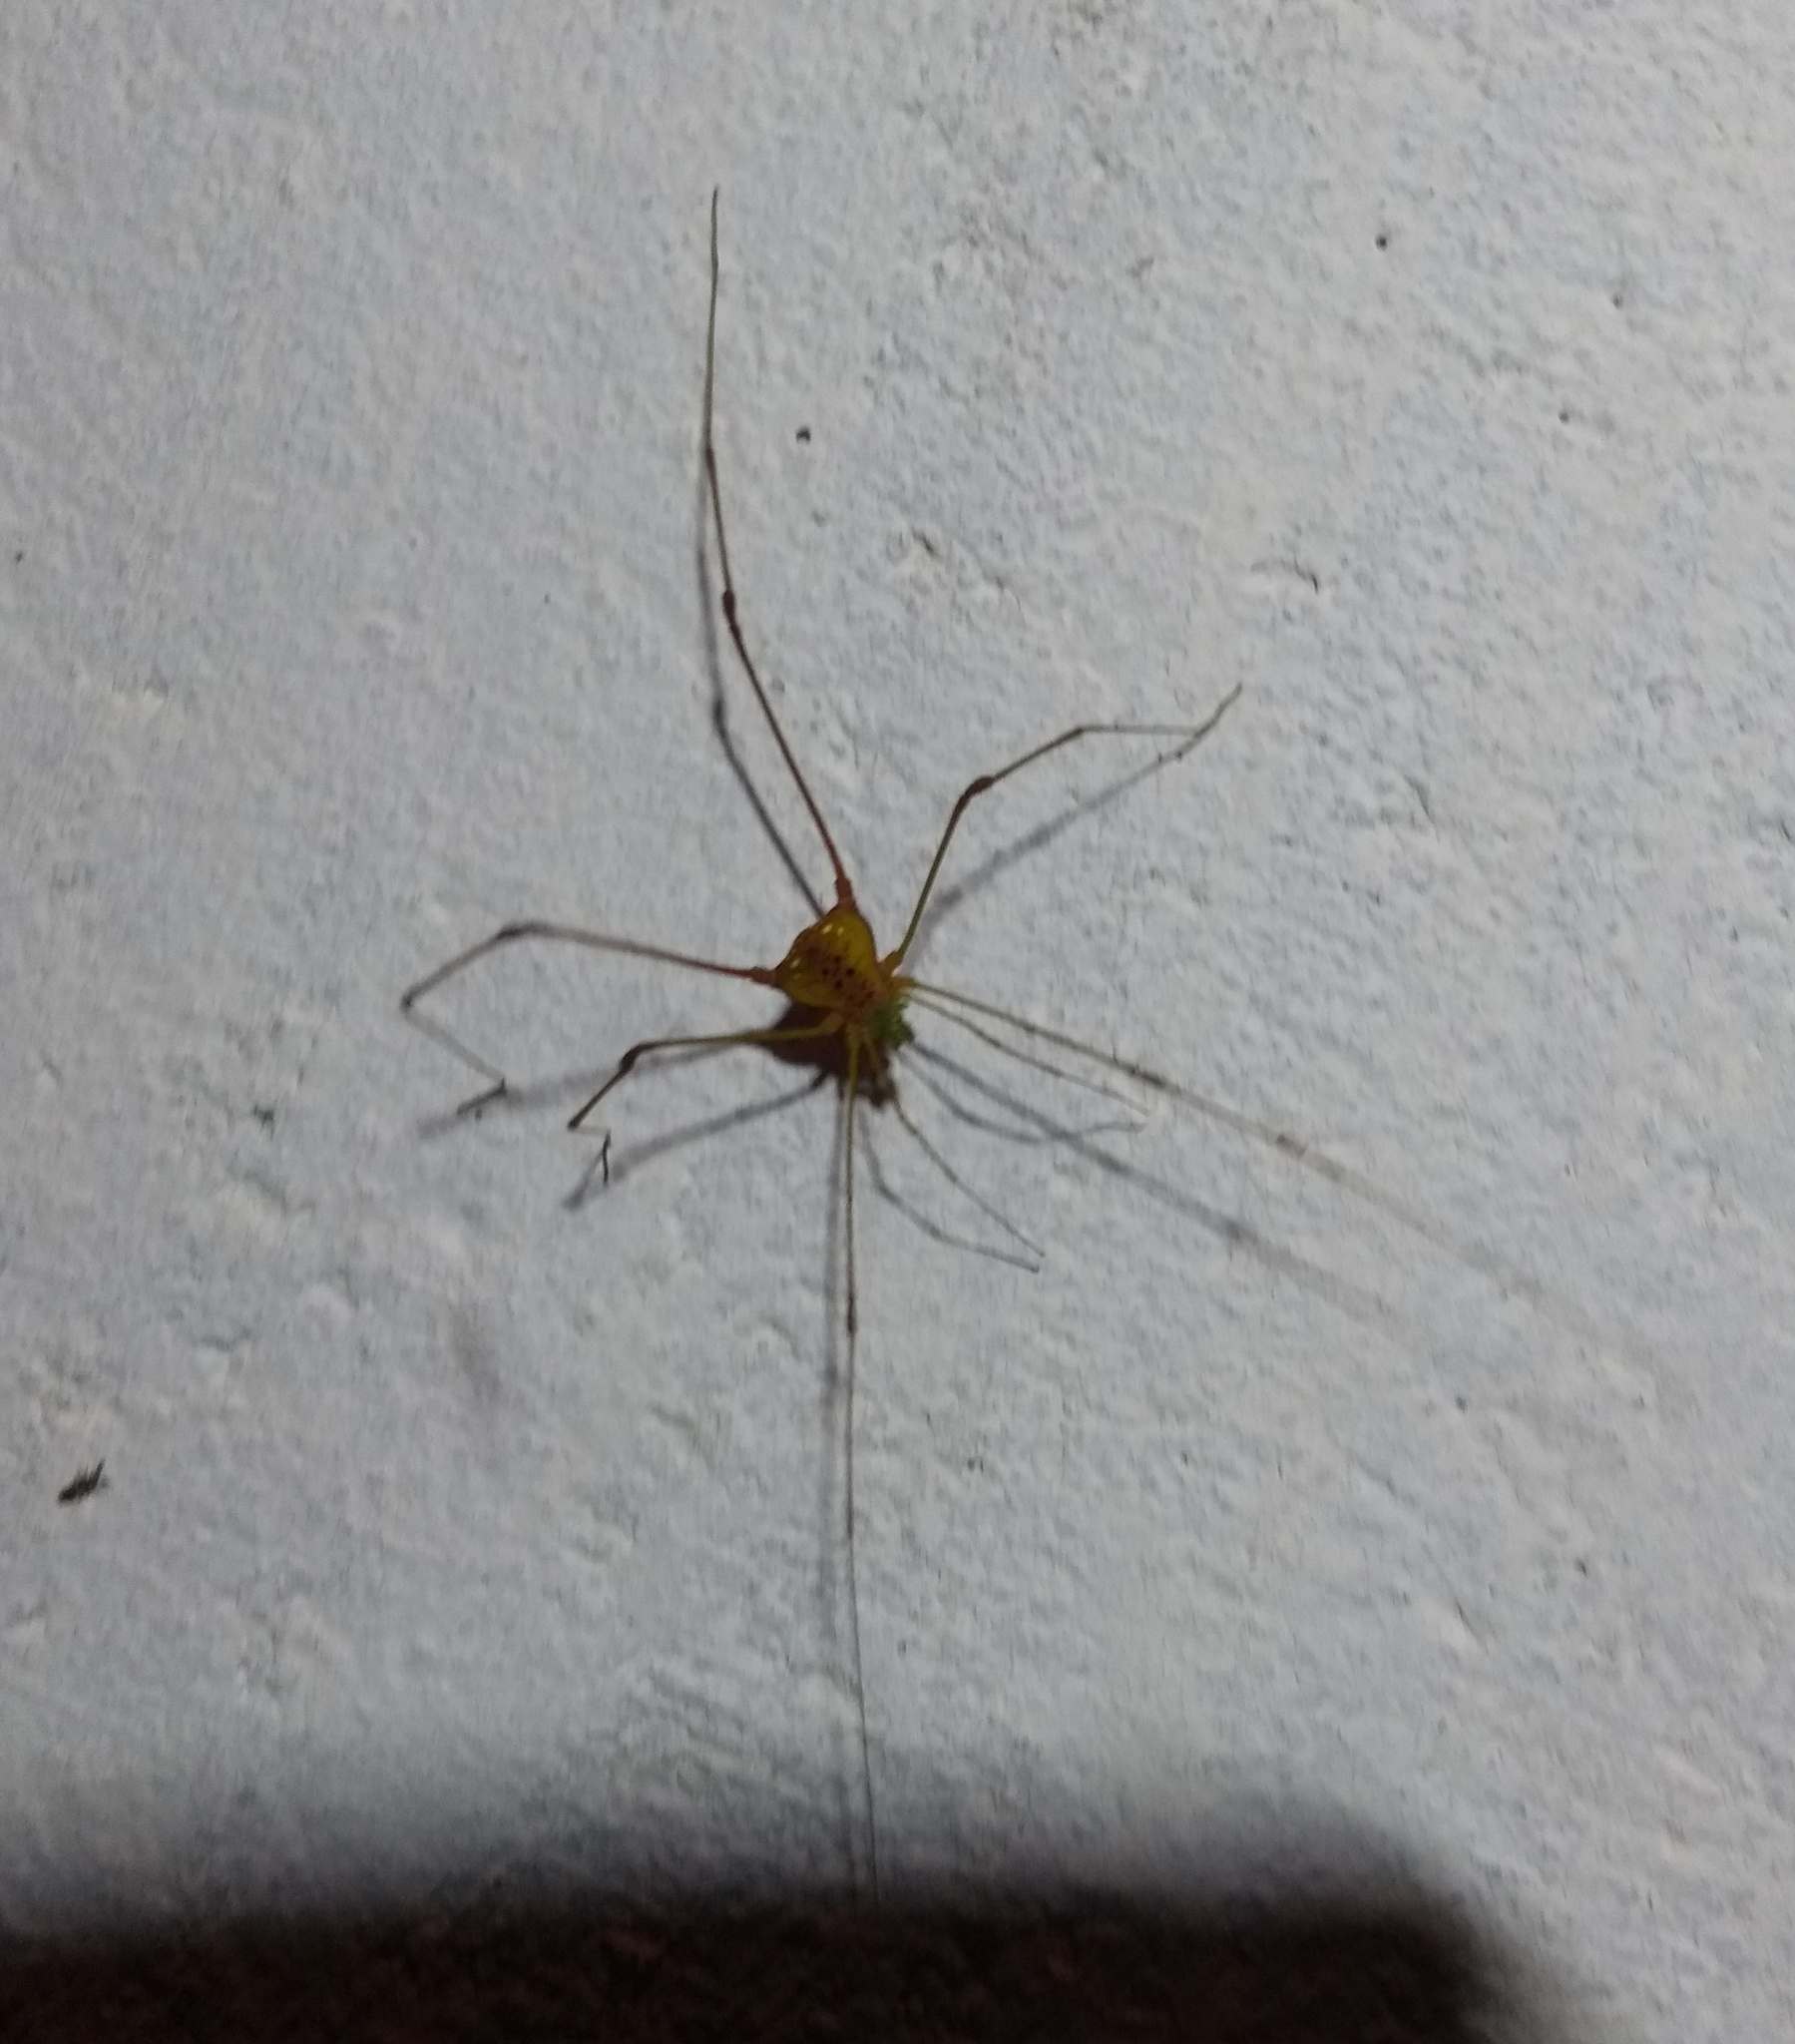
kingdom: Animalia
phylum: Arthropoda
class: Arachnida
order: Opiliones
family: Gonyleptidae
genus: Pristocnemus
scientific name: Pristocnemus pustulatus
